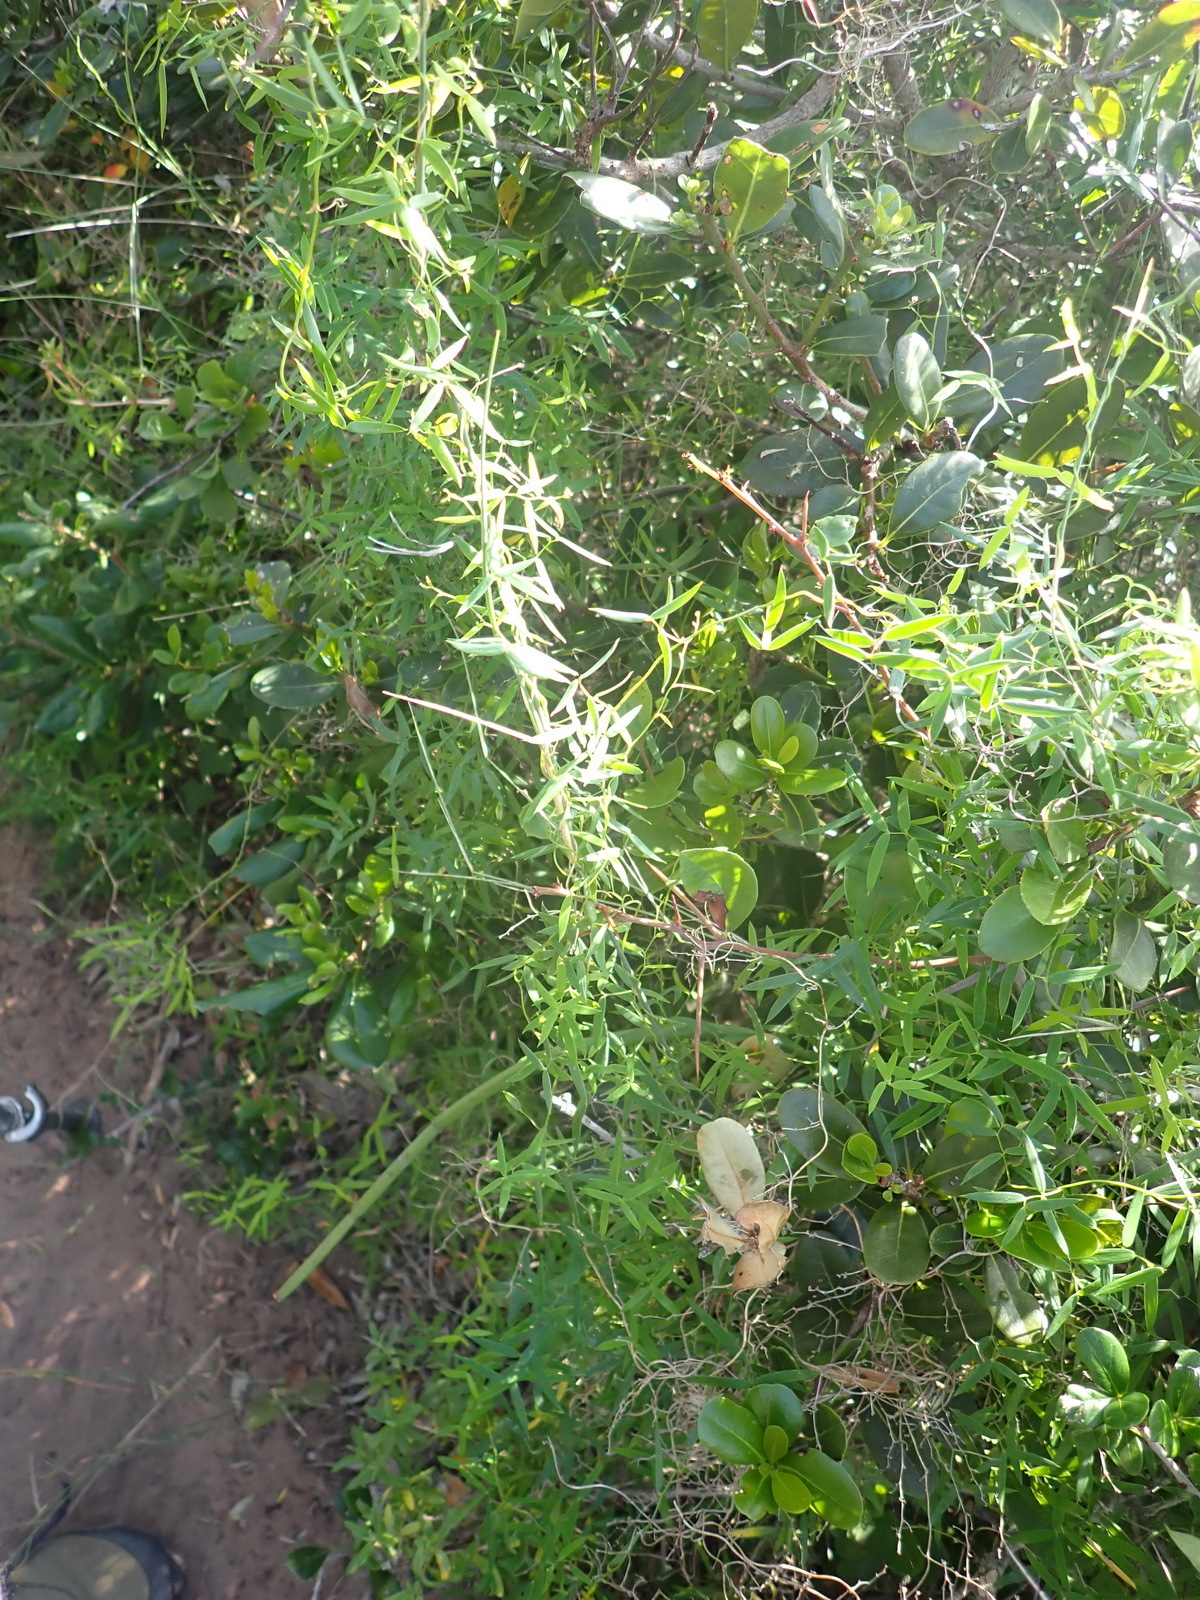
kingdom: Plantae
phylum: Tracheophyta
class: Liliopsida
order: Asparagales
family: Asparagaceae
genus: Asparagus
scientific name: Asparagus volubilis
